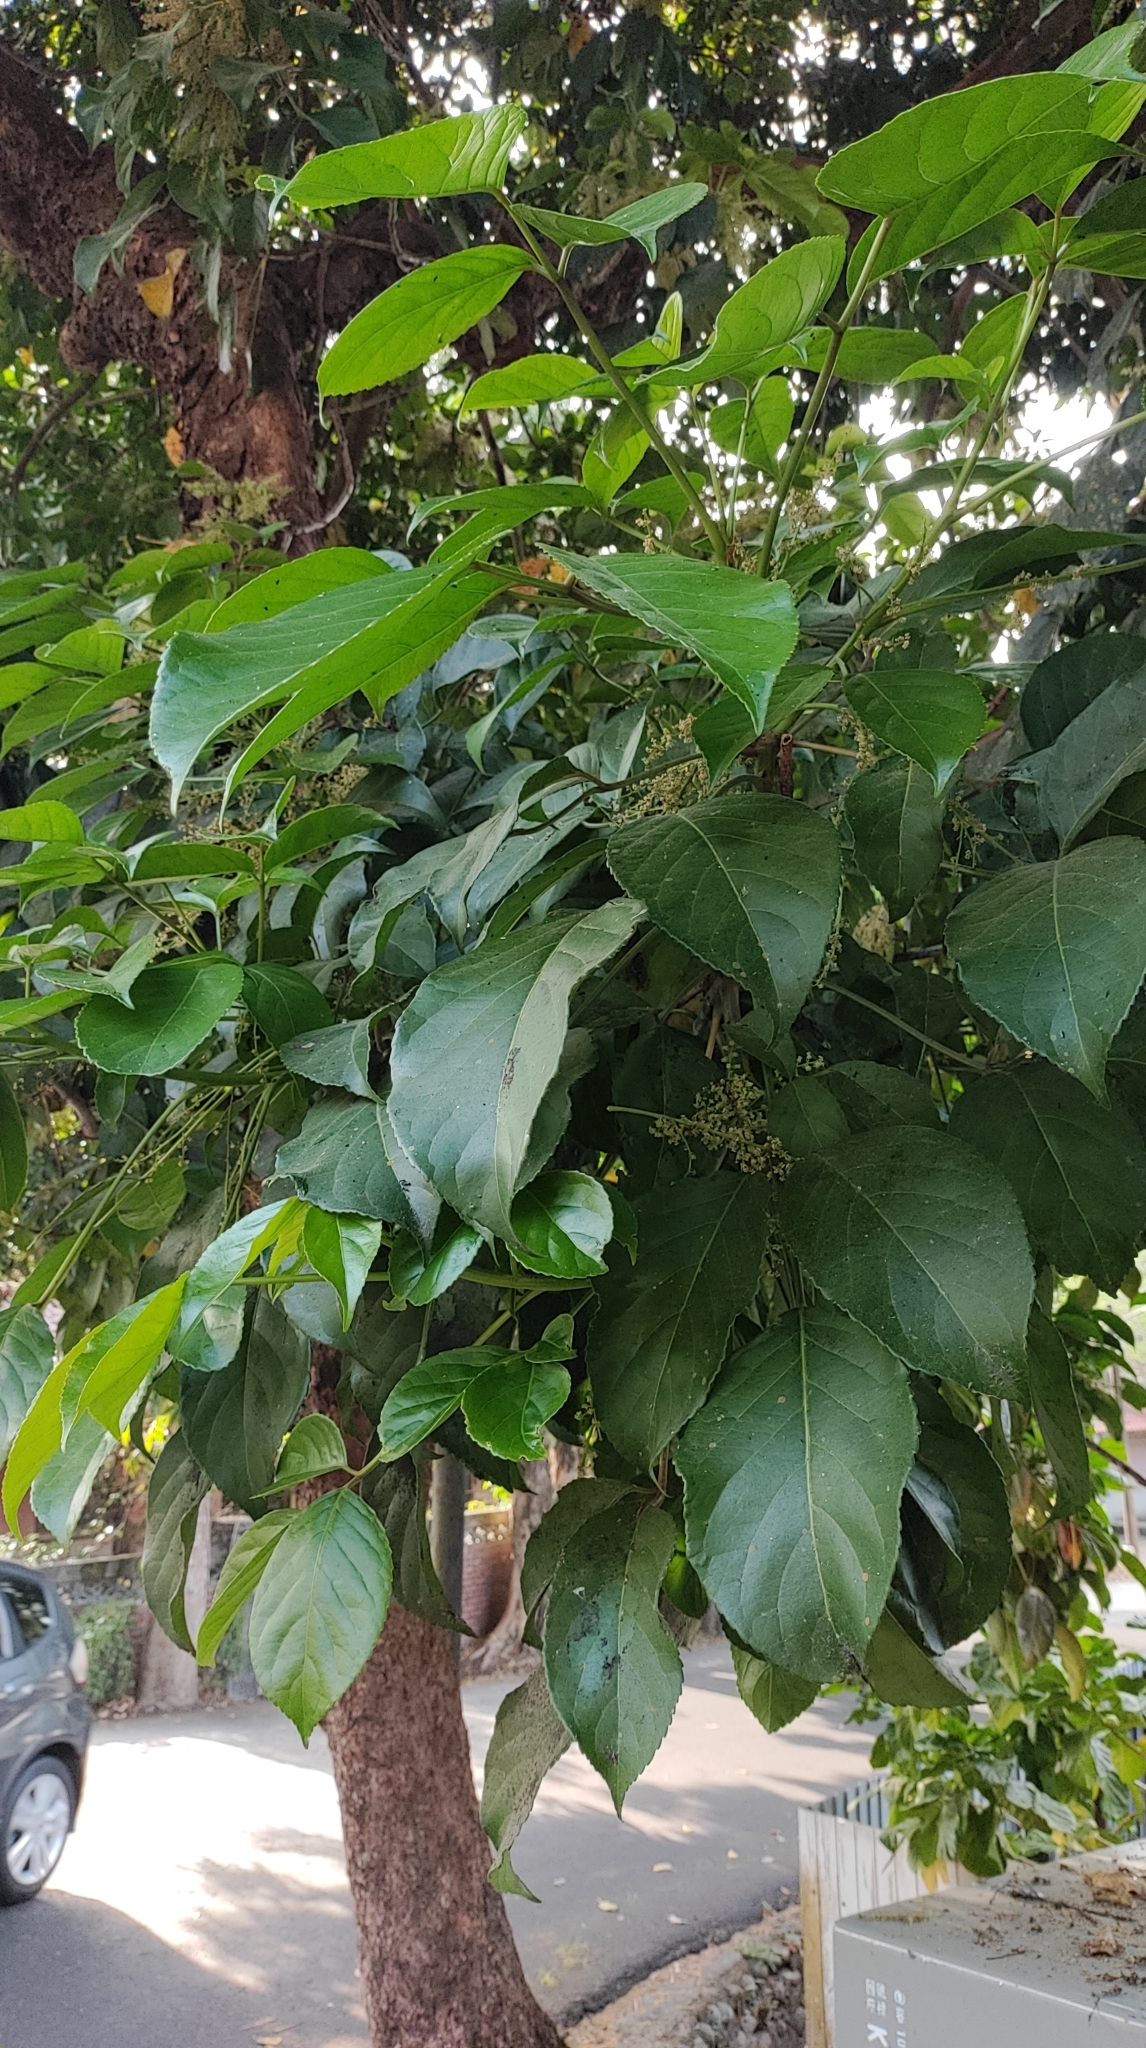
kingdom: Plantae
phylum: Tracheophyta
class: Magnoliopsida
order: Malpighiales
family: Phyllanthaceae
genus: Bischofia
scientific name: Bischofia javanica
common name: Javanese bishopwood
